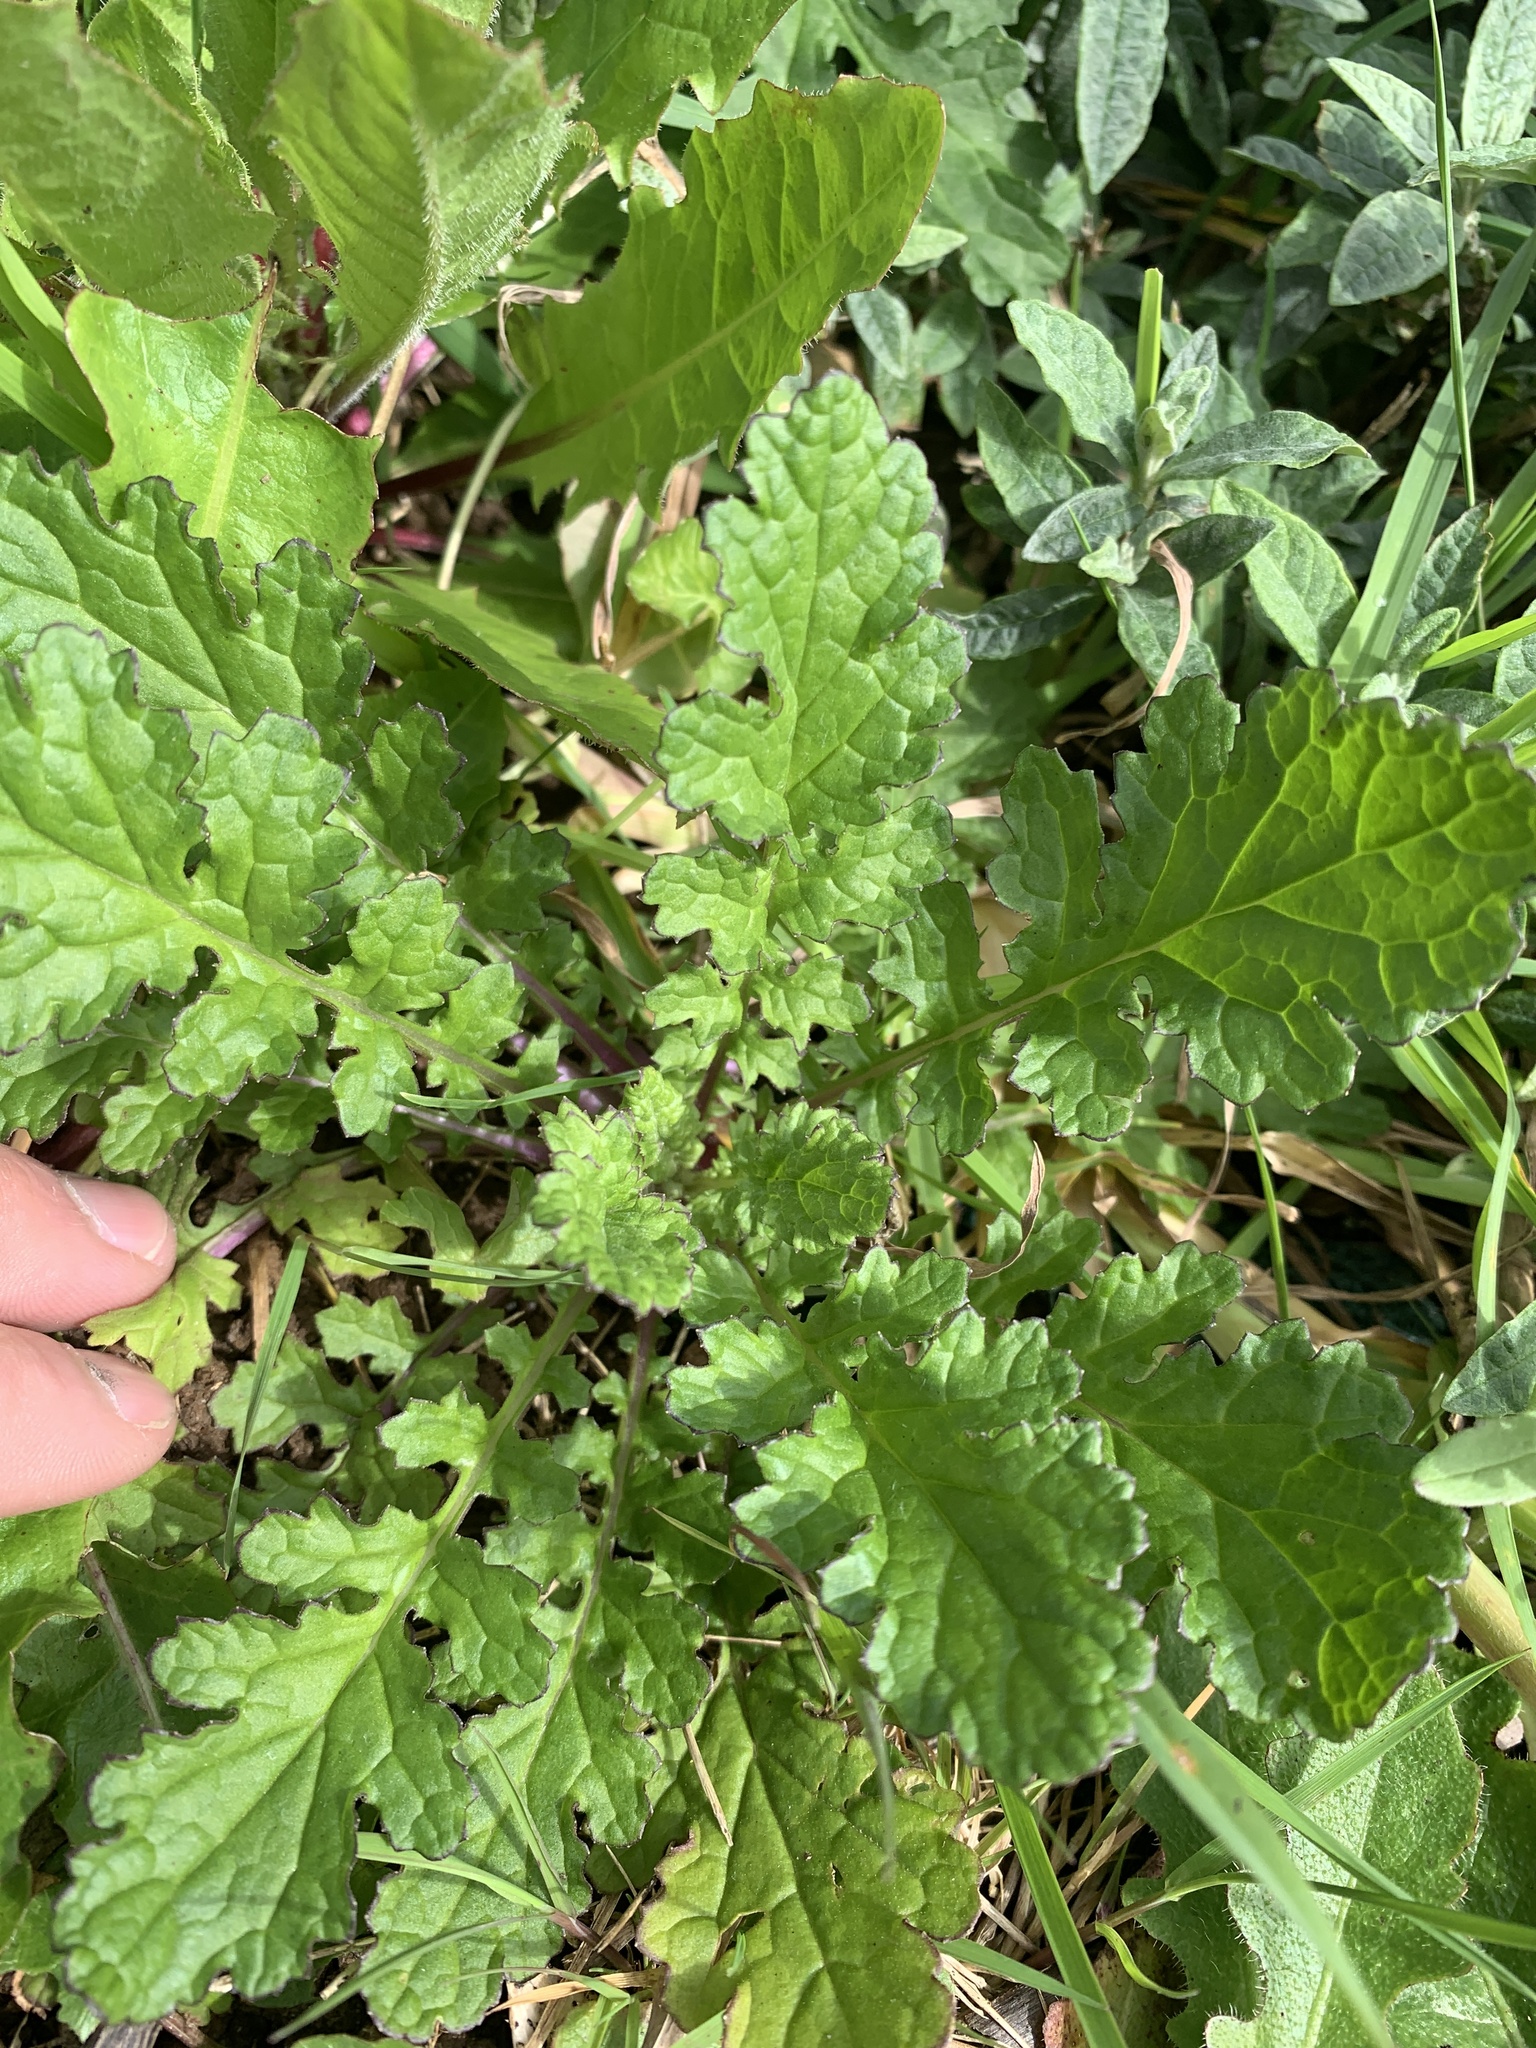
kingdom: Plantae
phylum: Tracheophyta
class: Magnoliopsida
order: Asterales
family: Asteraceae
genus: Jacobaea
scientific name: Jacobaea vulgaris
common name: Stinking willie
